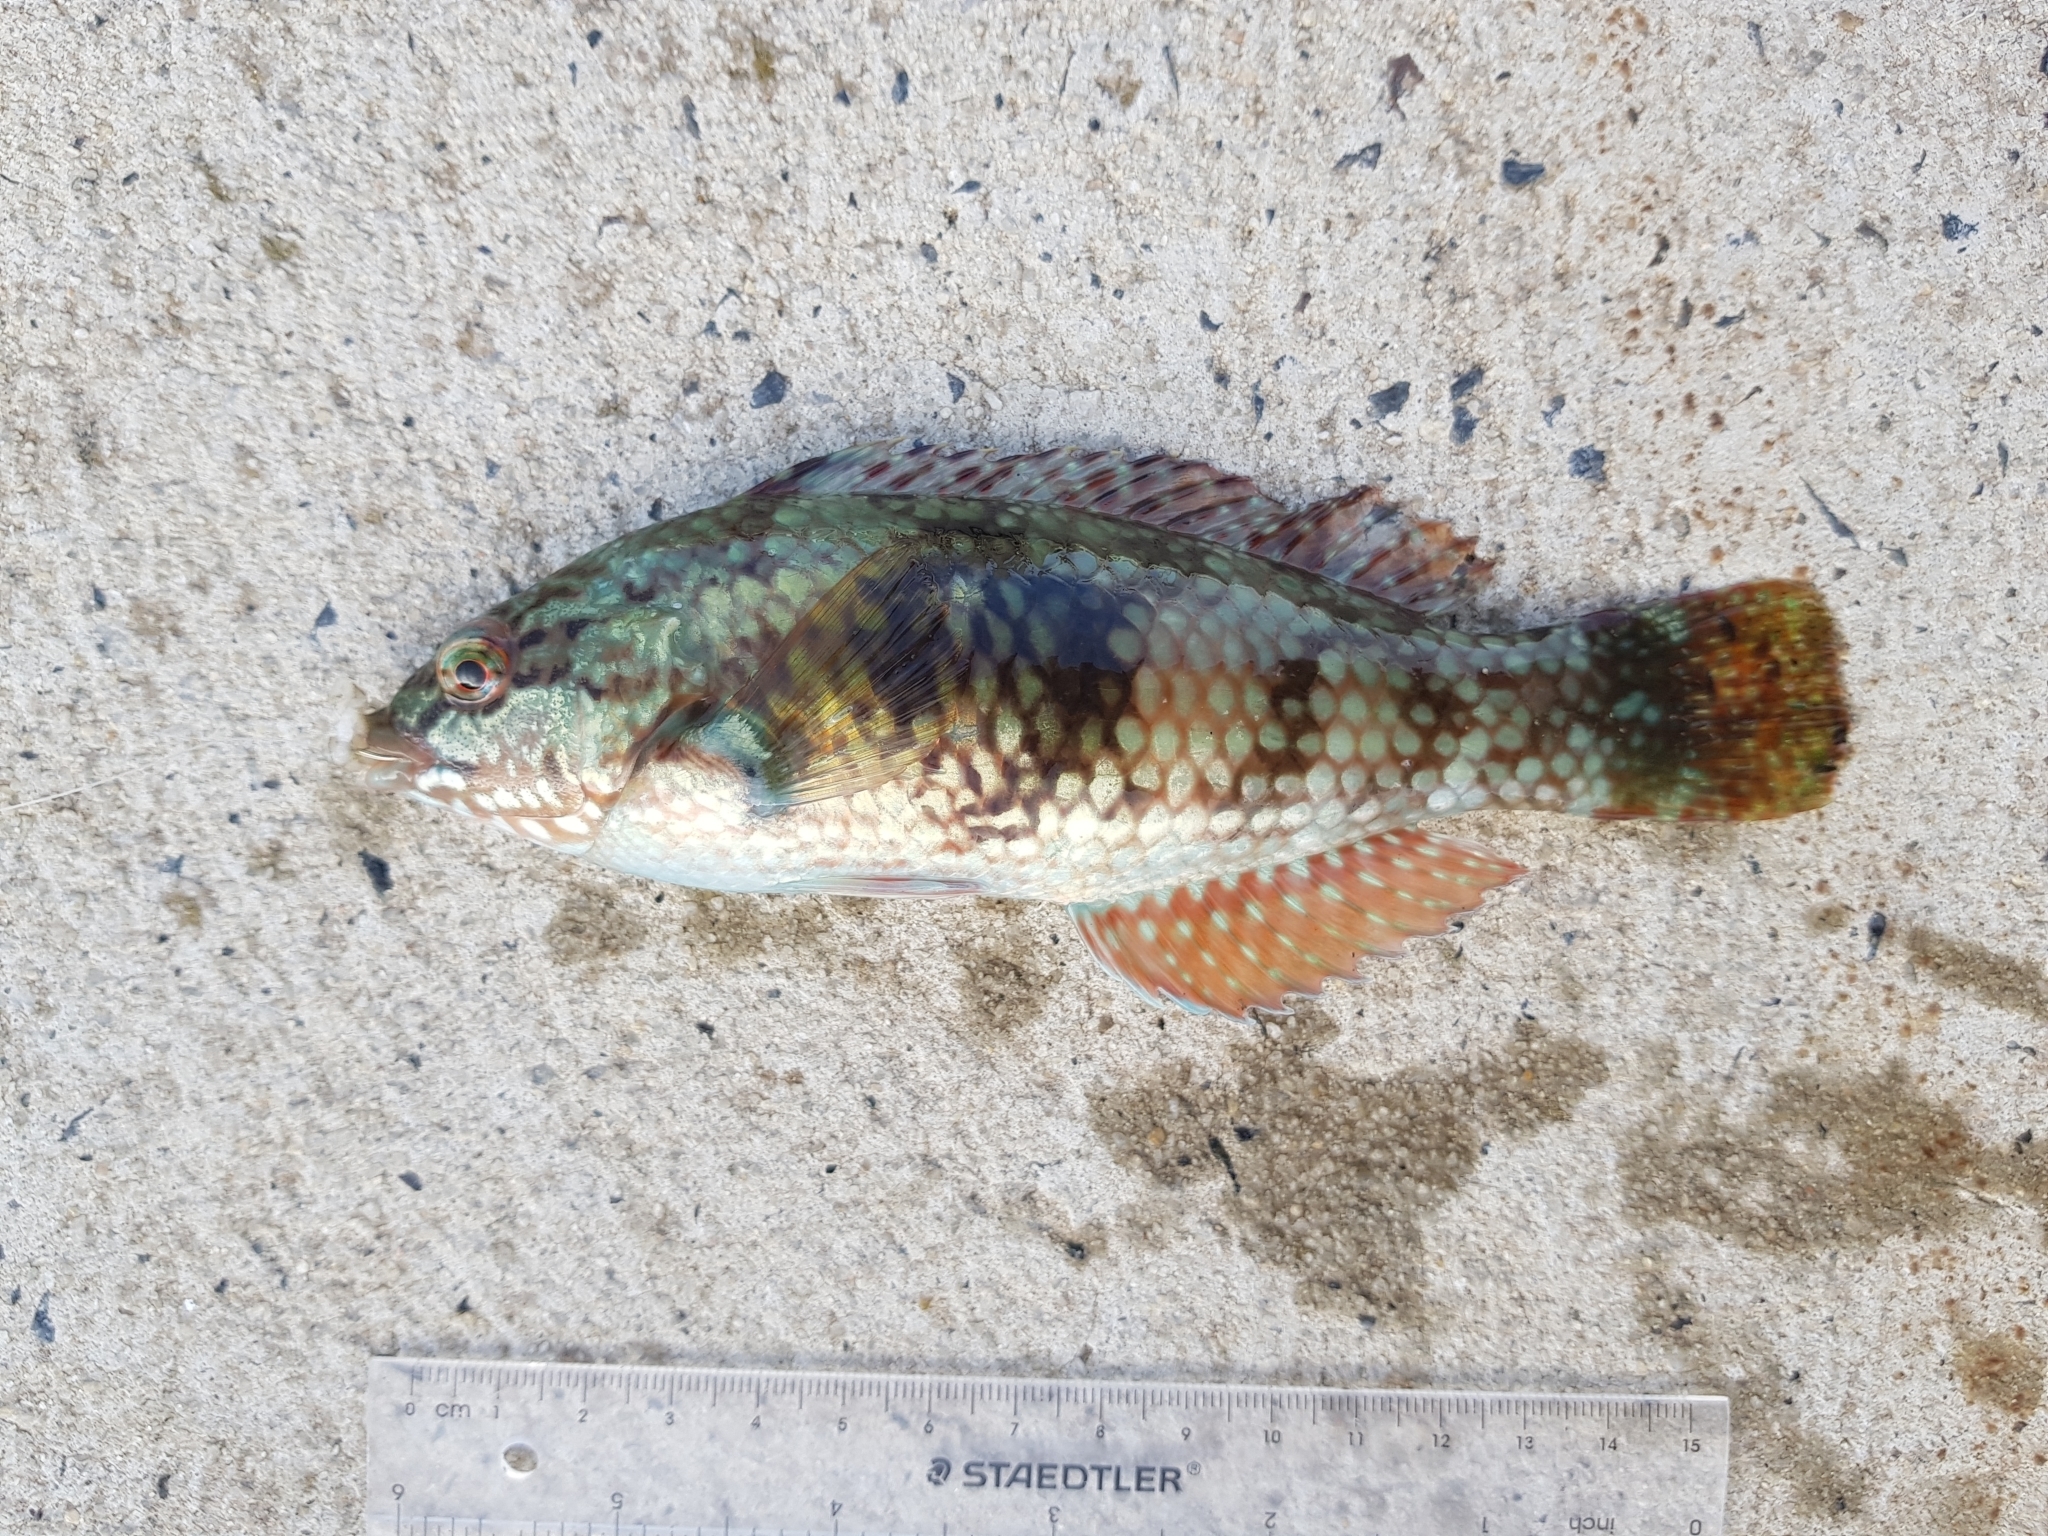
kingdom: Animalia
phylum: Chordata
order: Perciformes
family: Labridae
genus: Notolabrus
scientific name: Notolabrus tetricus
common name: Blue-throated parrotfish
